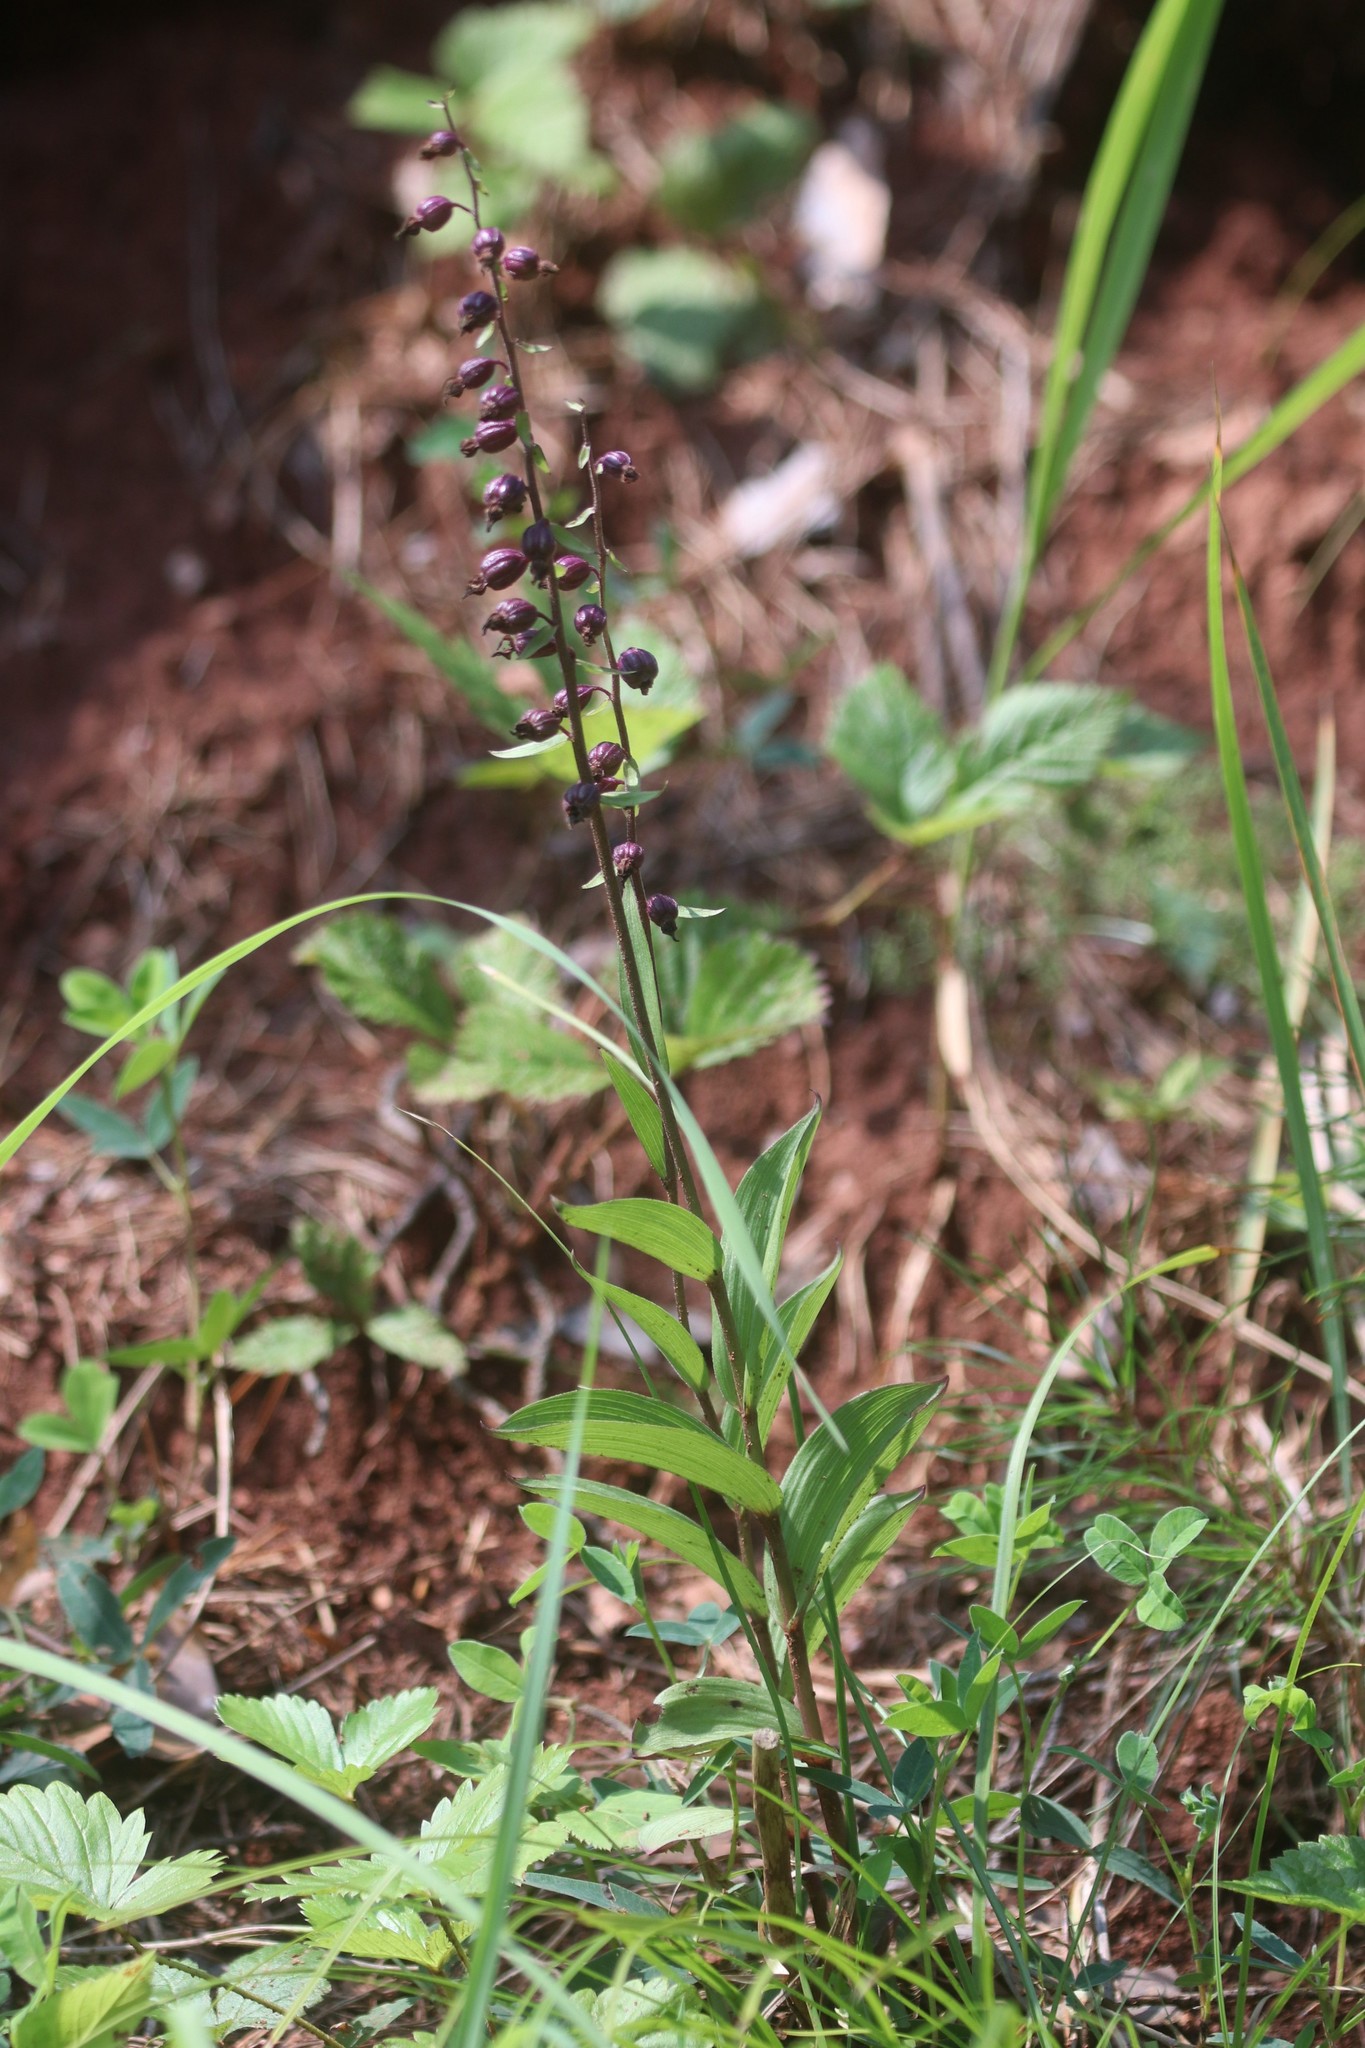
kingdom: Plantae
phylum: Tracheophyta
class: Liliopsida
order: Asparagales
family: Orchidaceae
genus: Epipactis
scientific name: Epipactis atrorubens
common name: Dark-red helleborine
